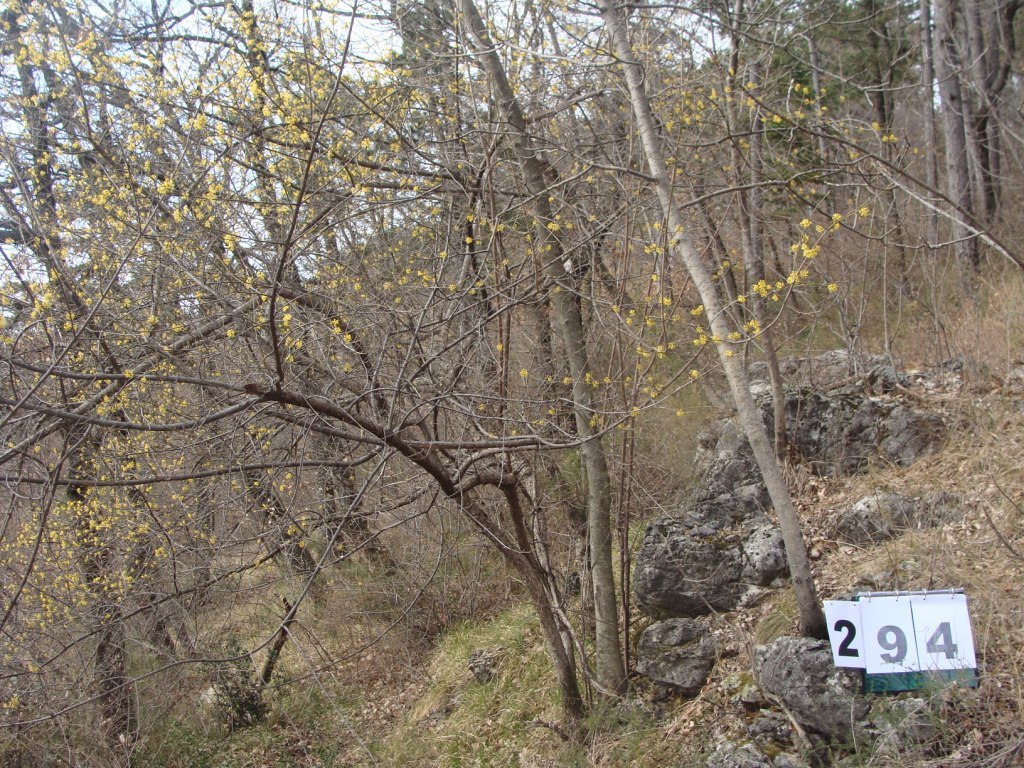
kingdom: Plantae
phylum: Tracheophyta
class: Magnoliopsida
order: Cornales
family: Cornaceae
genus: Cornus
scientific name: Cornus mas
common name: Cornelian-cherry
